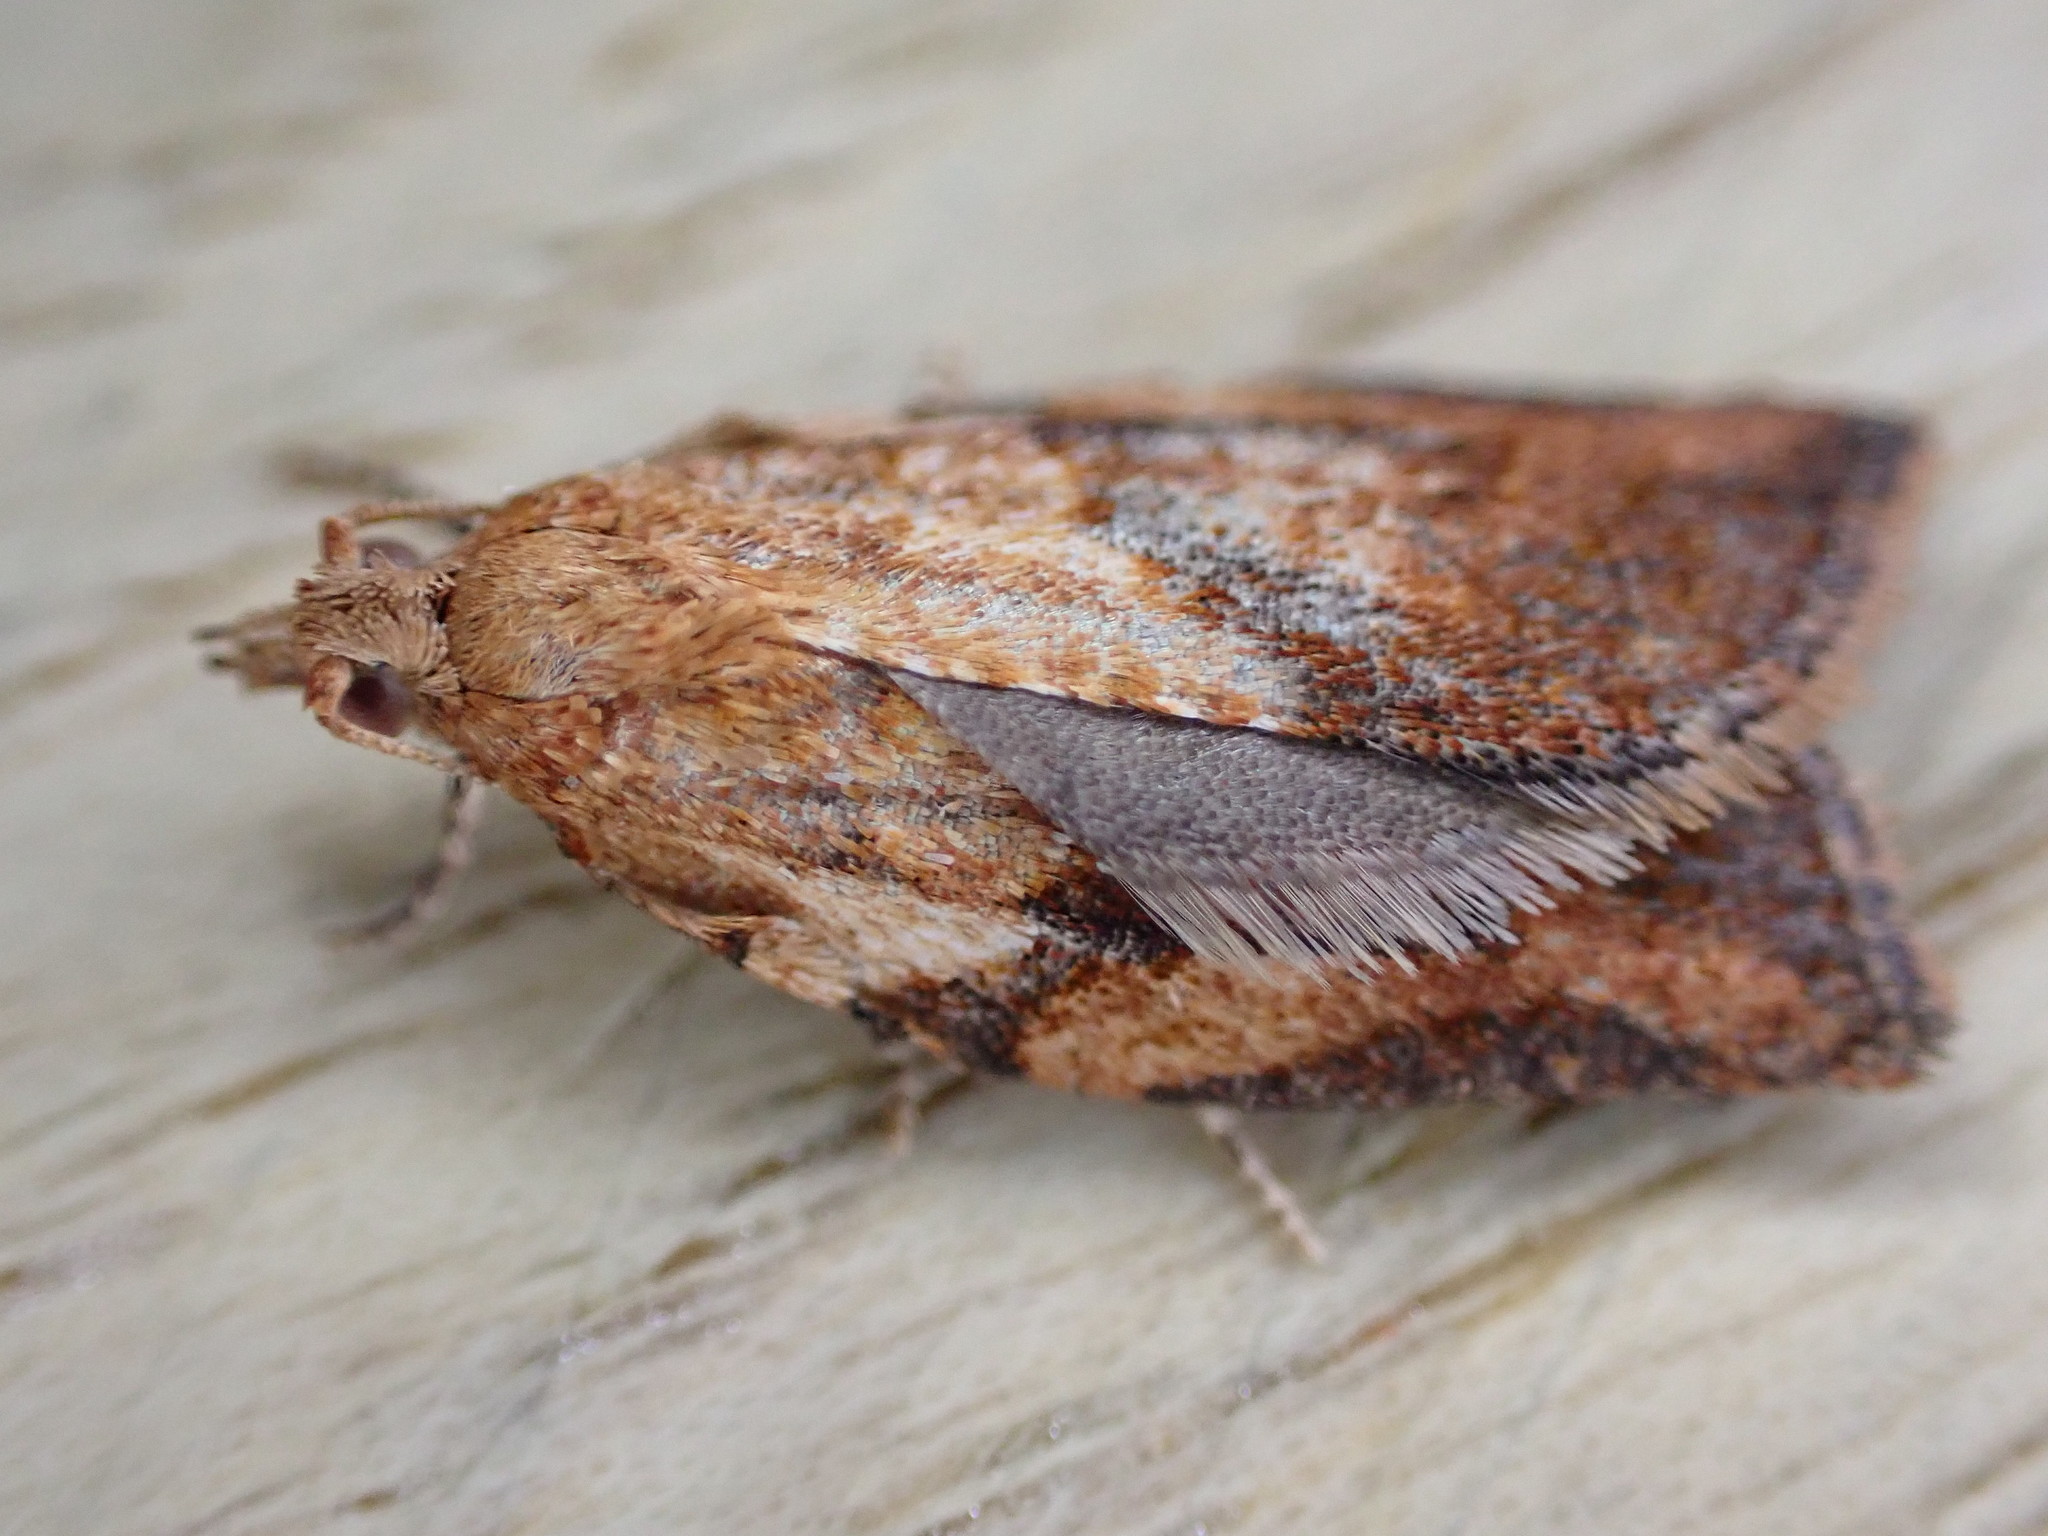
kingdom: Animalia
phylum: Arthropoda
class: Insecta
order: Lepidoptera
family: Tortricidae
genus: Epiphyas
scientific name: Epiphyas postvittana
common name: Light brown apple moth
